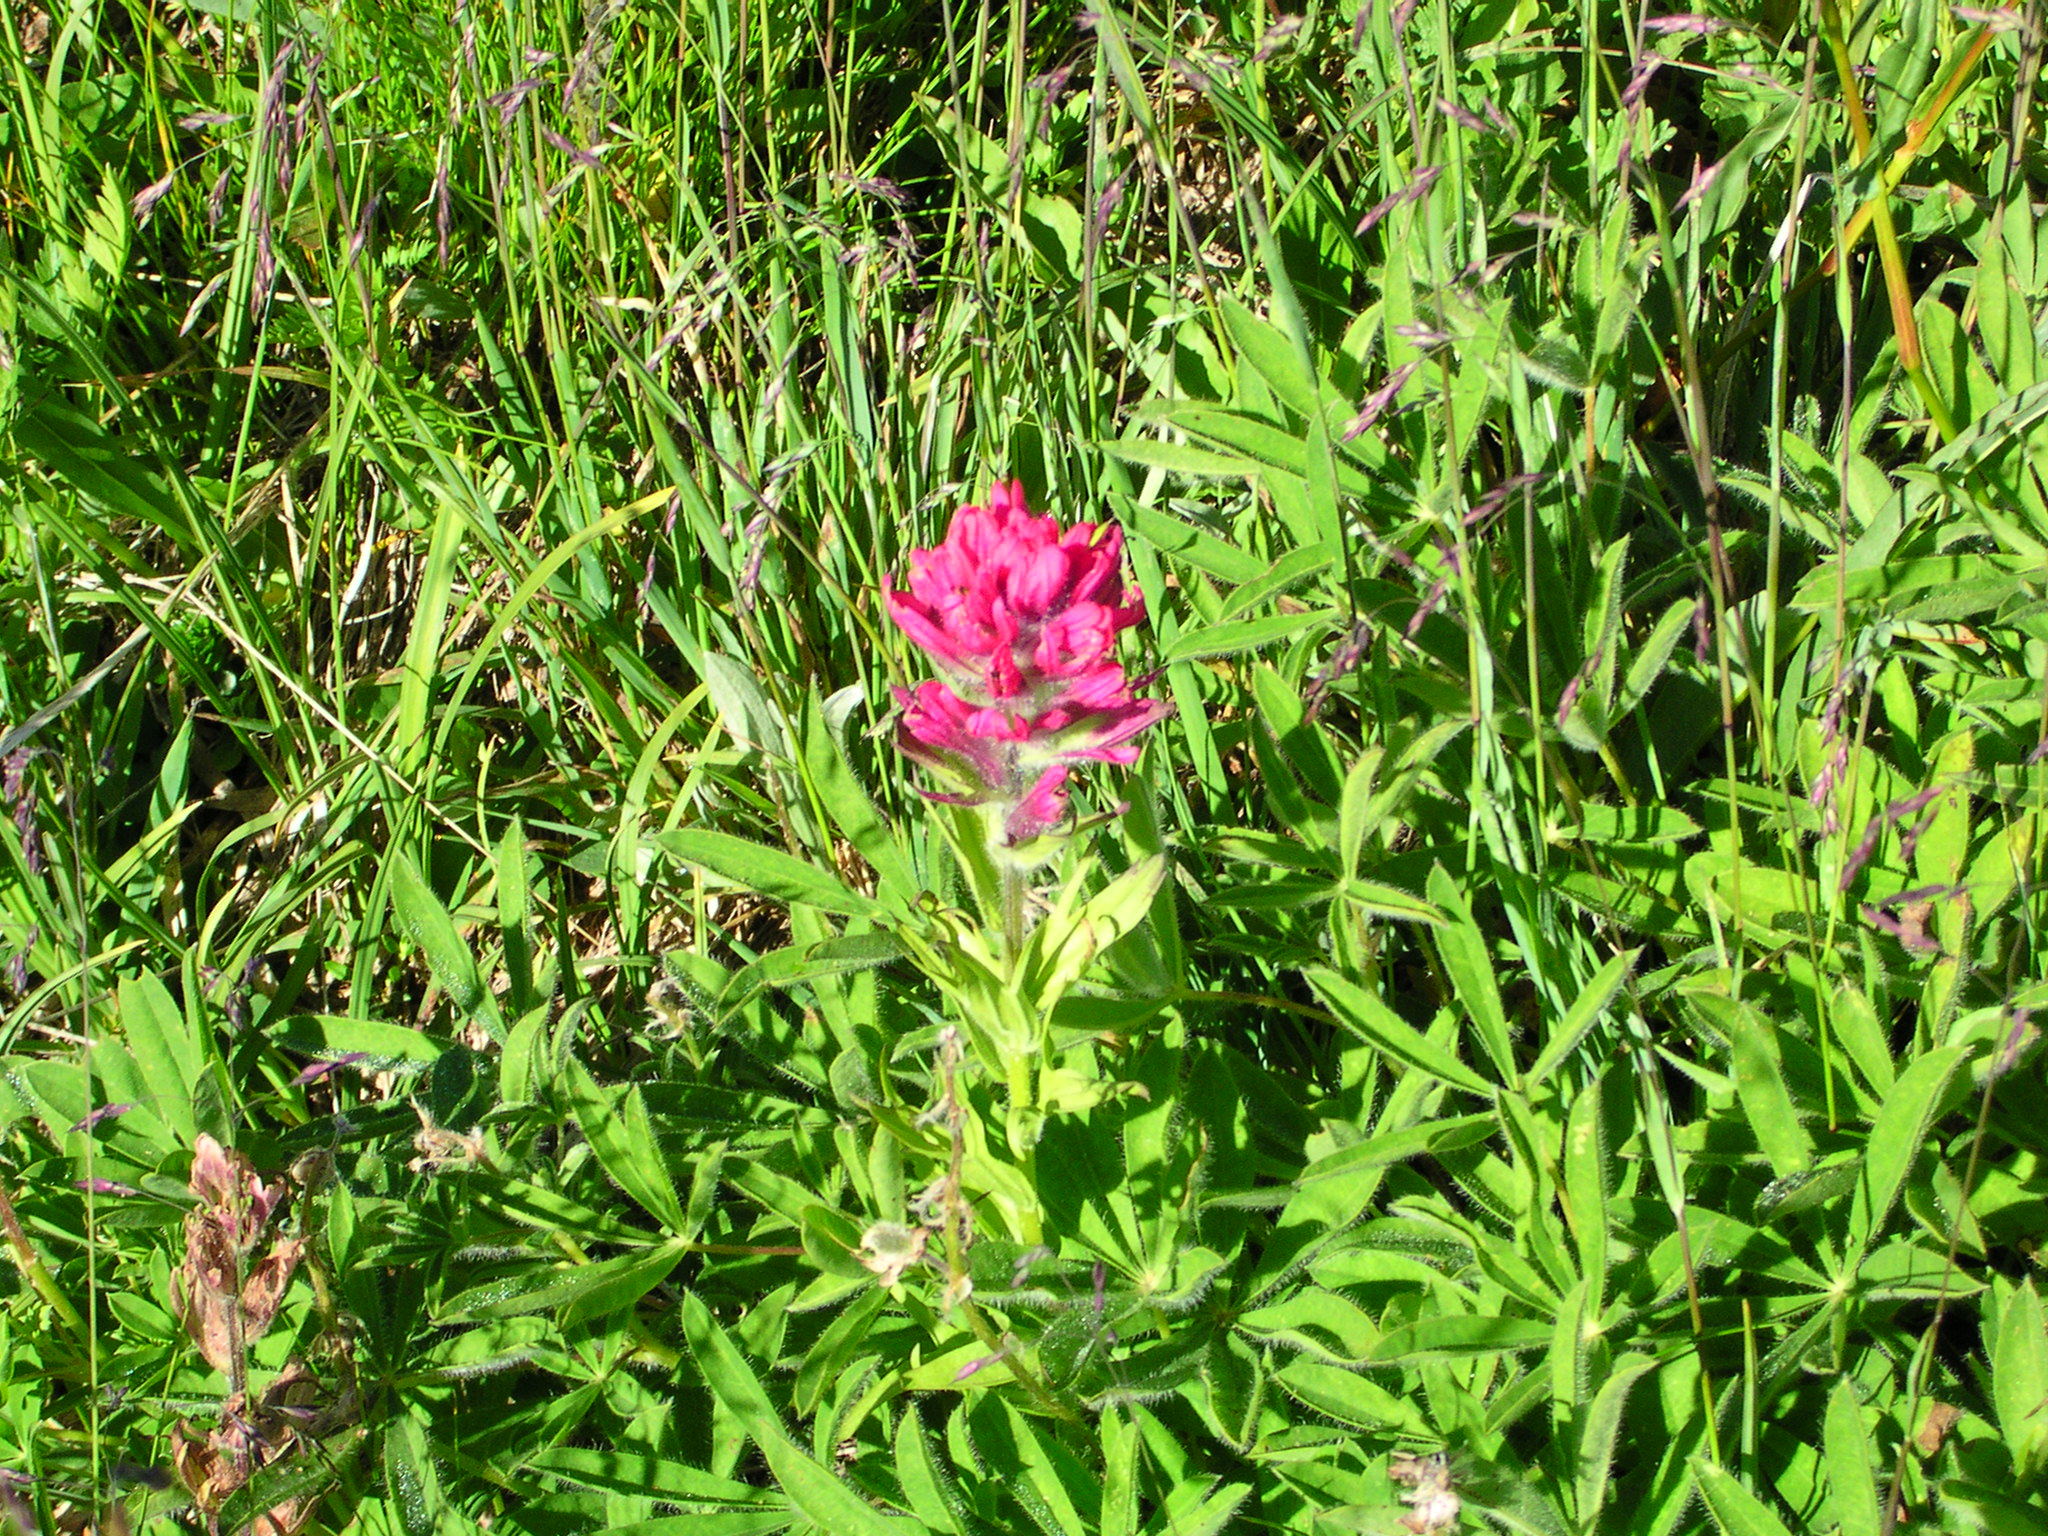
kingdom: Plantae
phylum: Tracheophyta
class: Magnoliopsida
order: Lamiales
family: Orobanchaceae
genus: Castilleja
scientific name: Castilleja parviflora
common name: Mountain paintbrush
